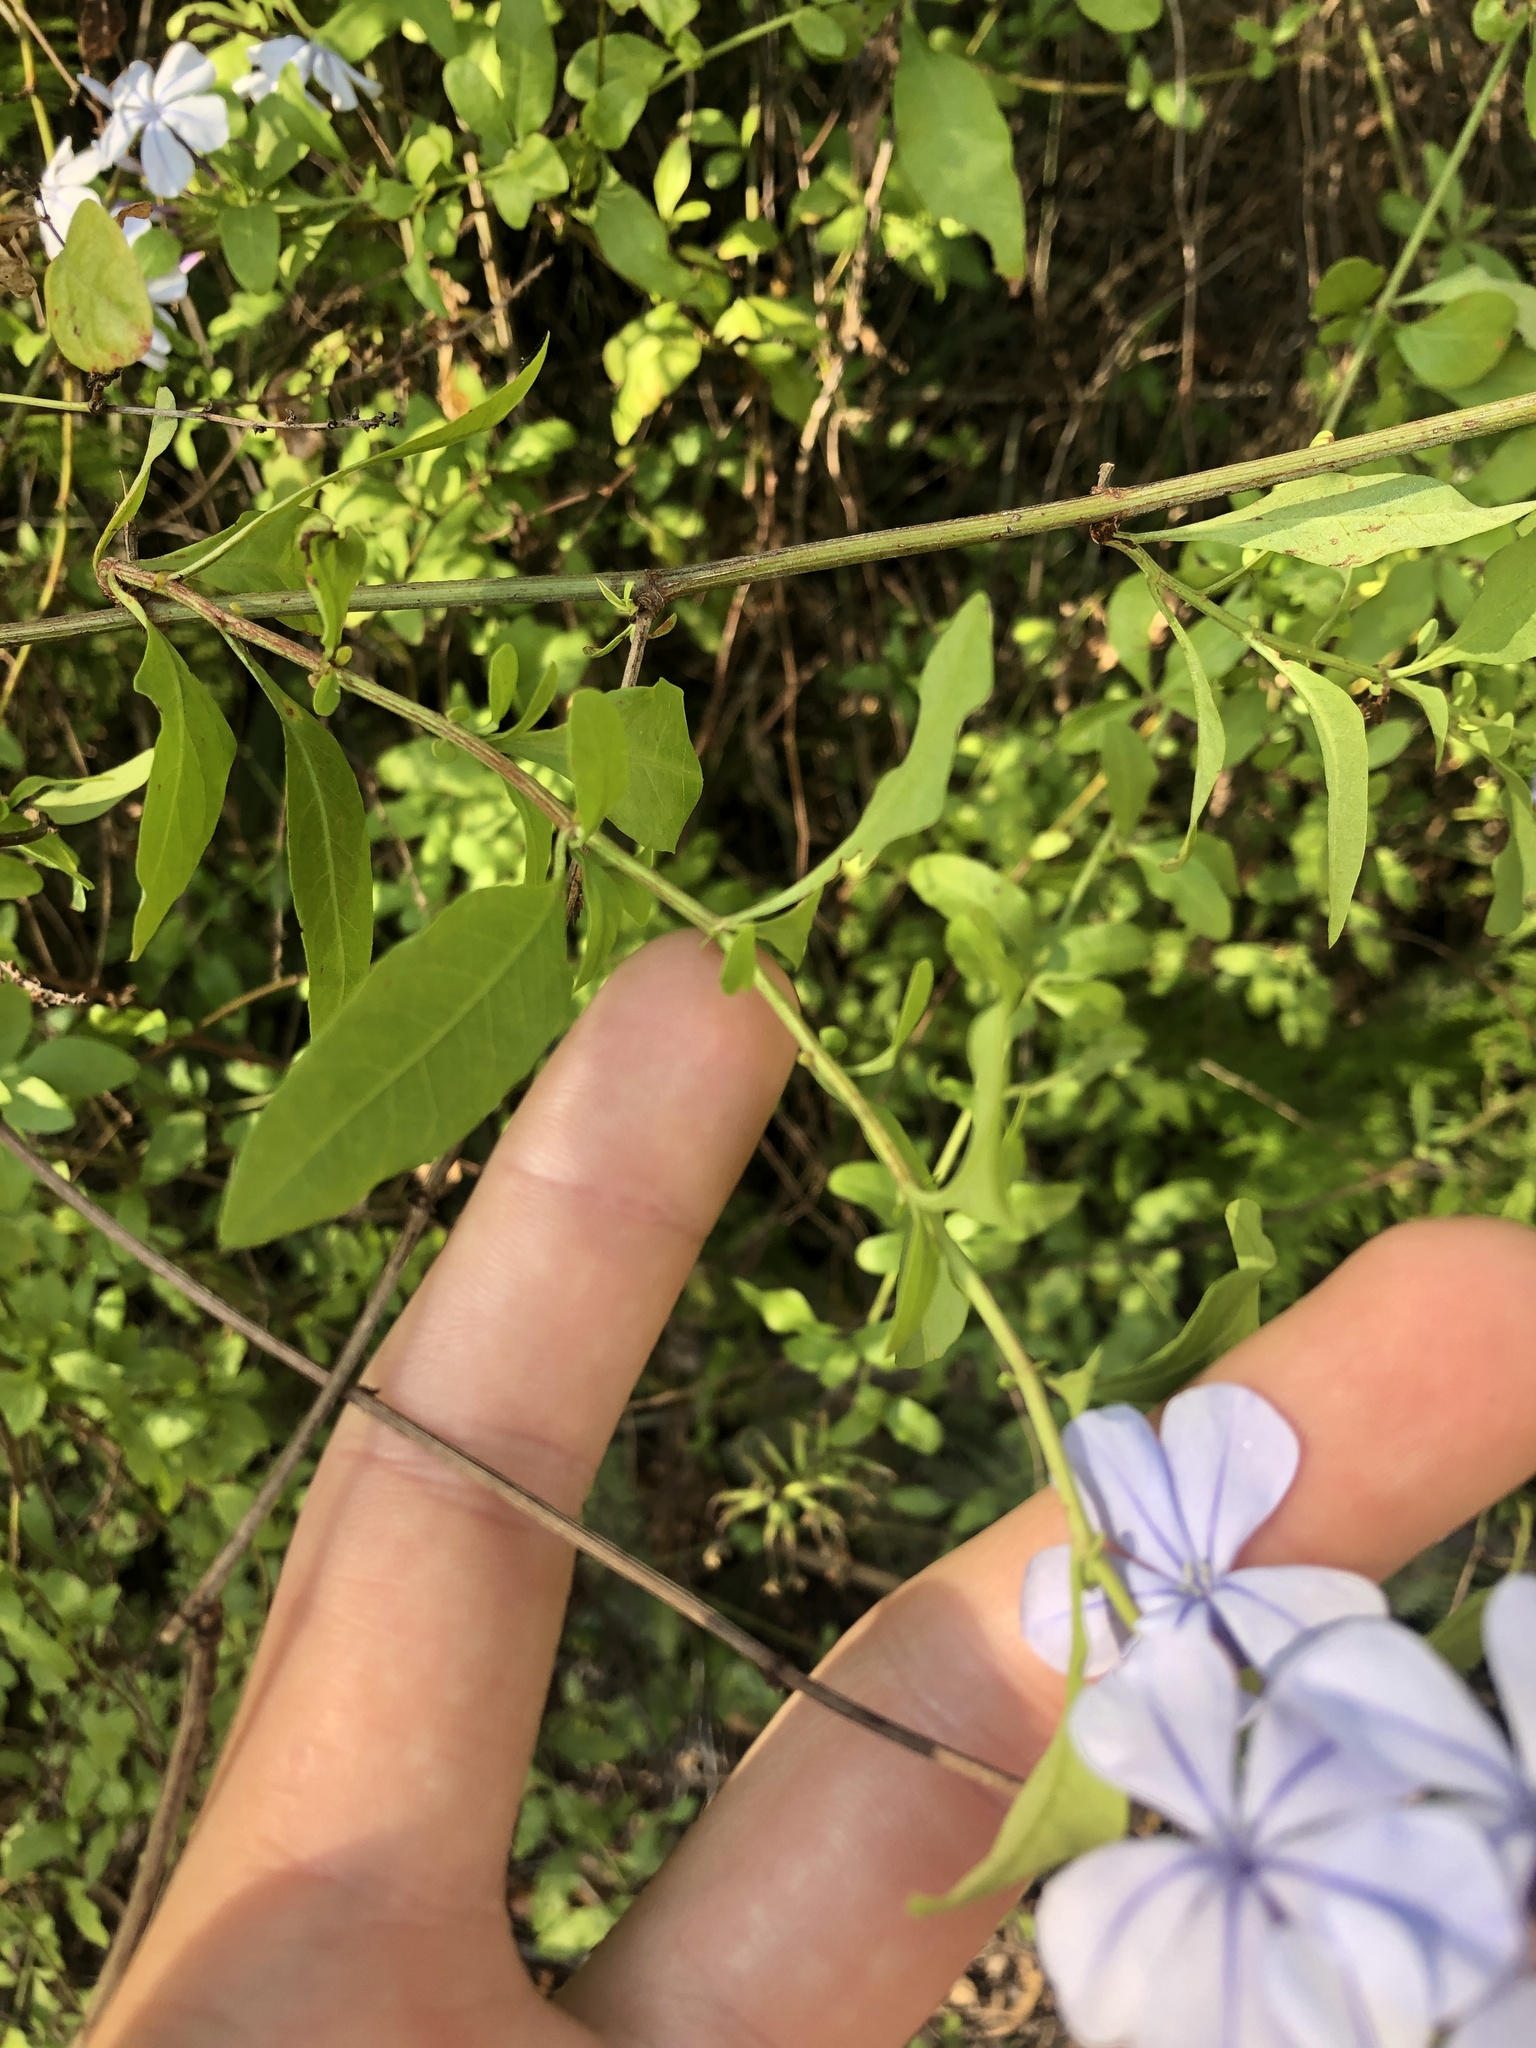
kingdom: Plantae
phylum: Tracheophyta
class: Magnoliopsida
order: Caryophyllales
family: Plumbaginaceae
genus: Plumbago
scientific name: Plumbago auriculata
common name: Cape leadwort
